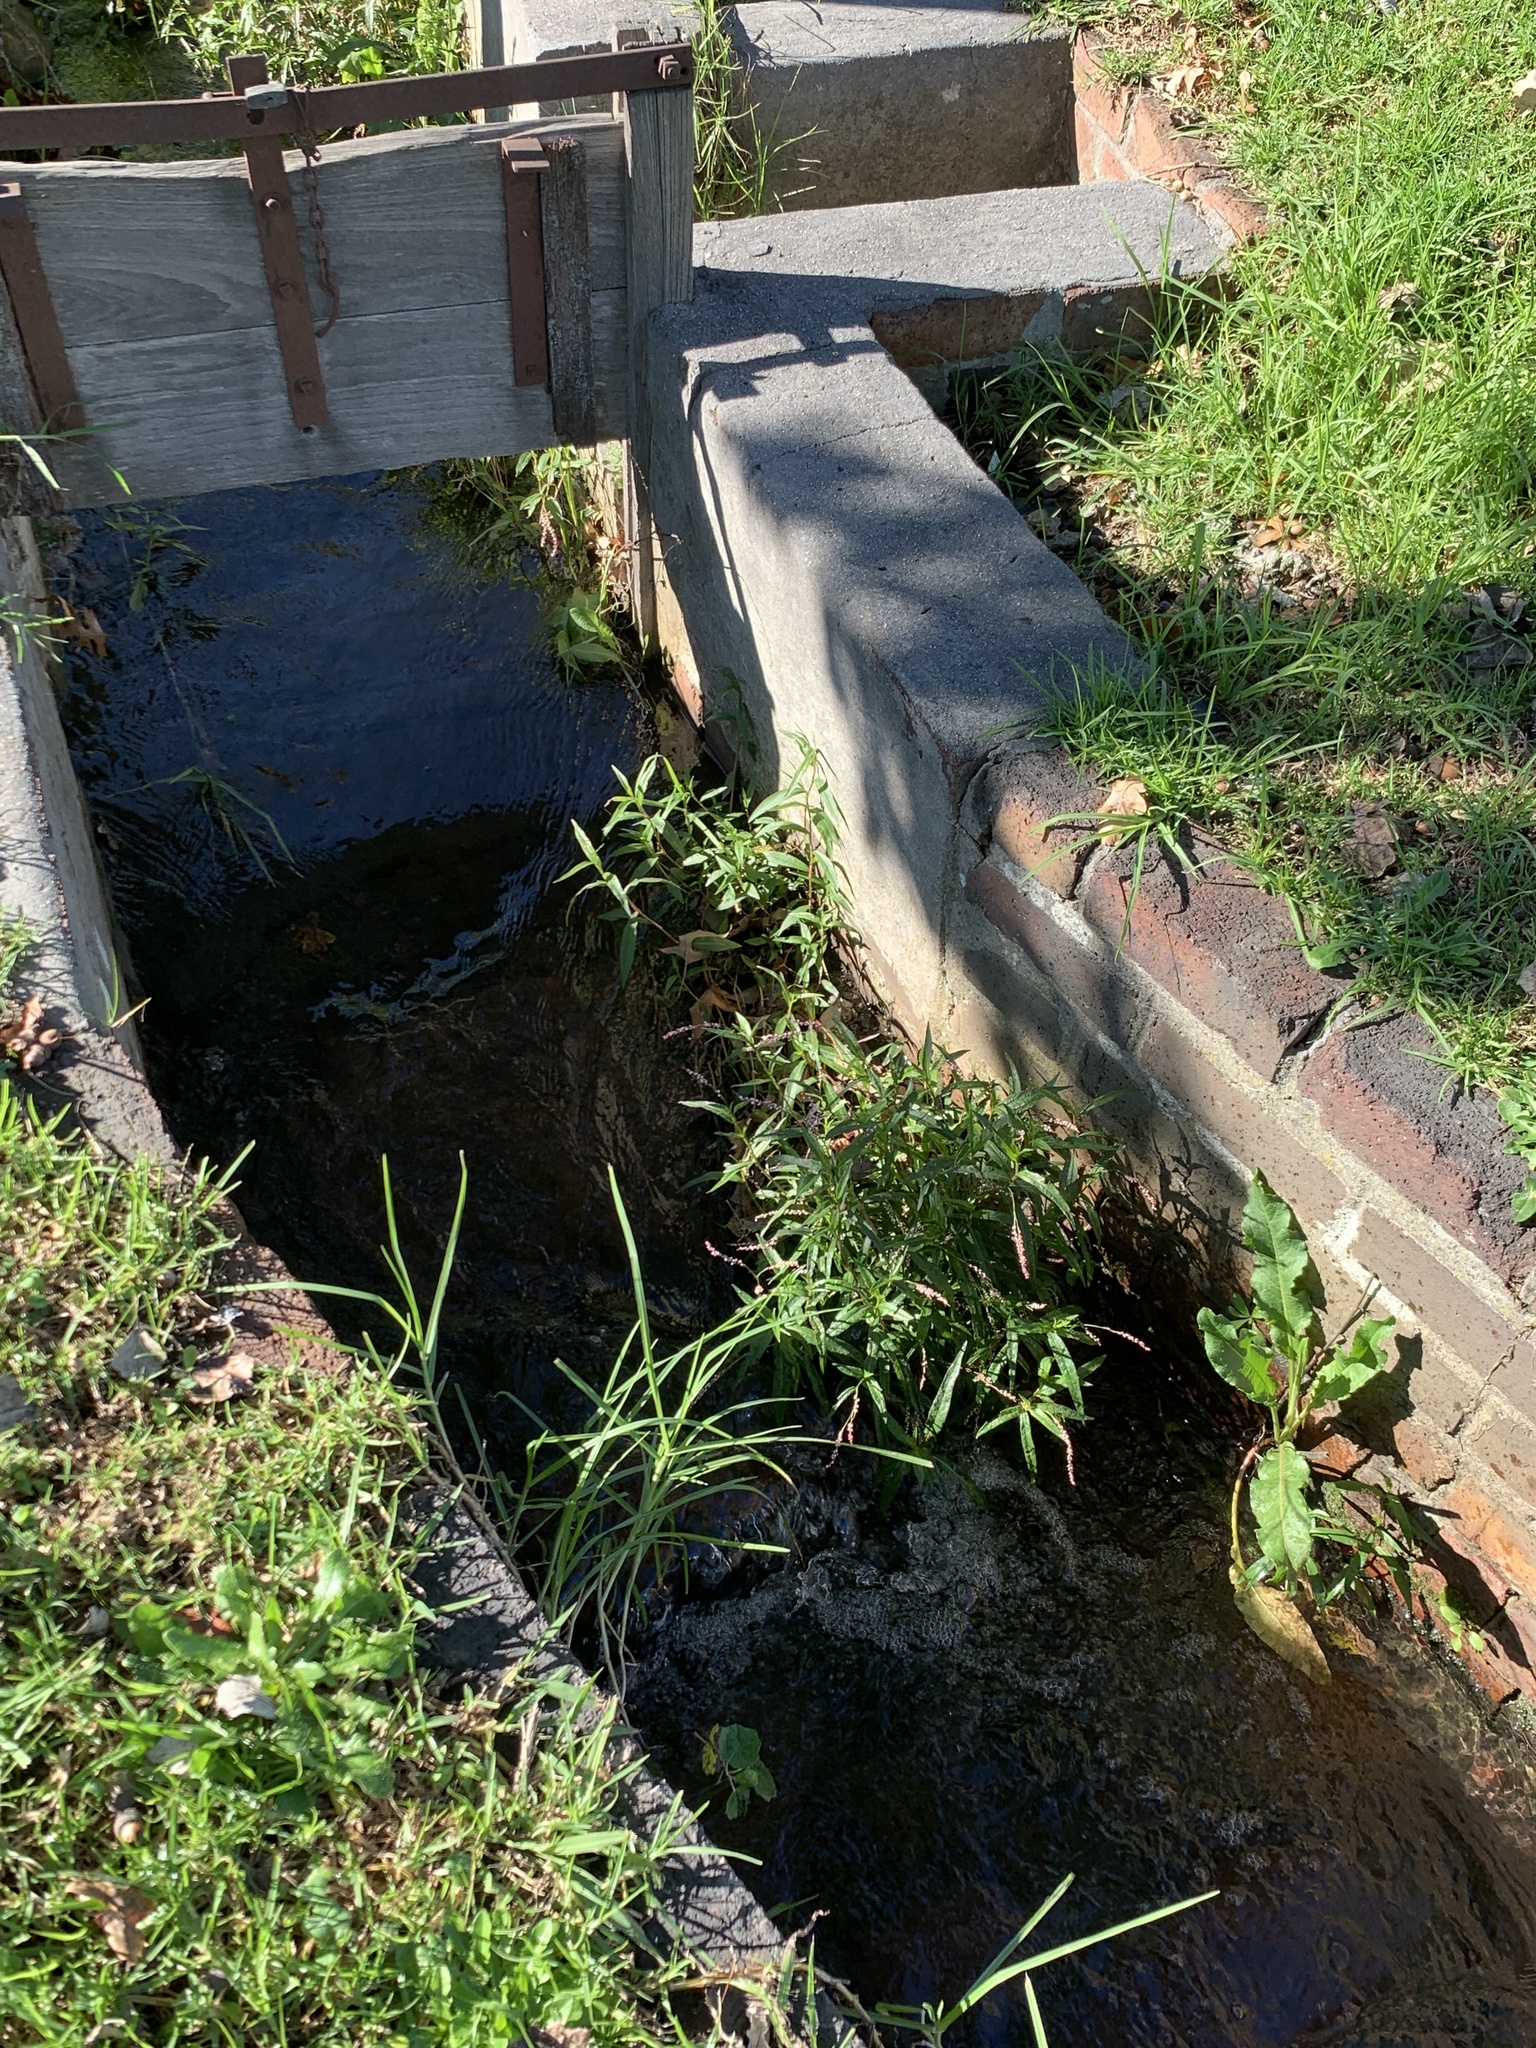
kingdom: Plantae
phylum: Tracheophyta
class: Magnoliopsida
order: Caryophyllales
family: Polygonaceae
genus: Persicaria
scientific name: Persicaria decipiens
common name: Willow-weed
